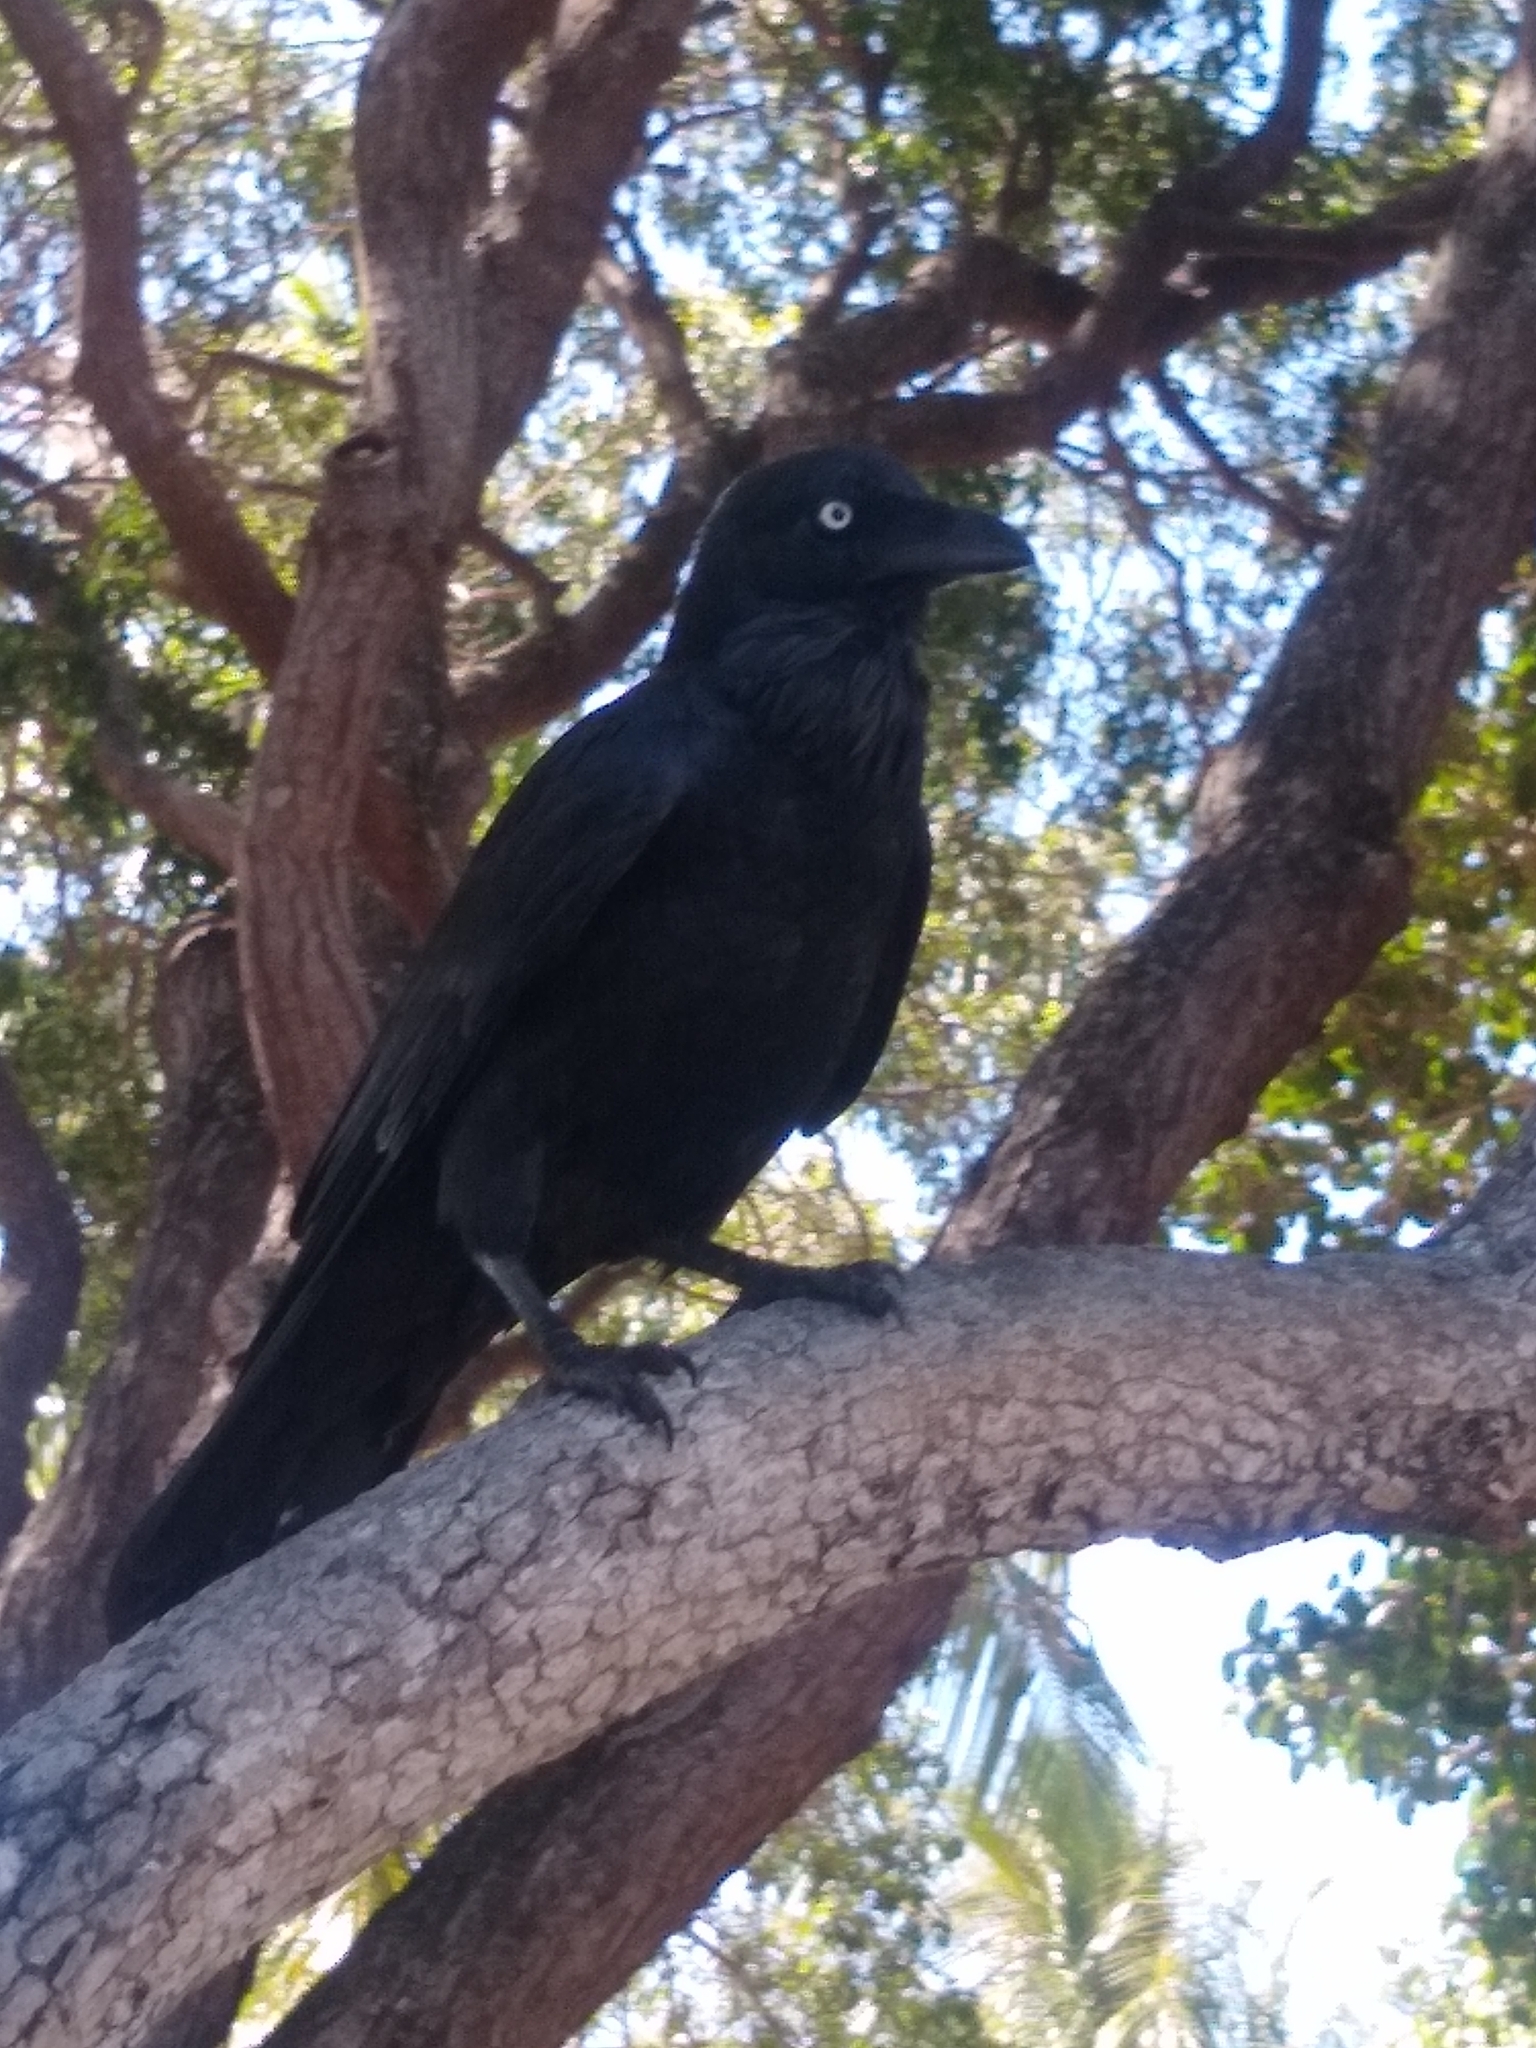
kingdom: Animalia
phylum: Chordata
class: Aves
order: Passeriformes
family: Corvidae
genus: Corvus
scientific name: Corvus coronoides
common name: Australian raven
